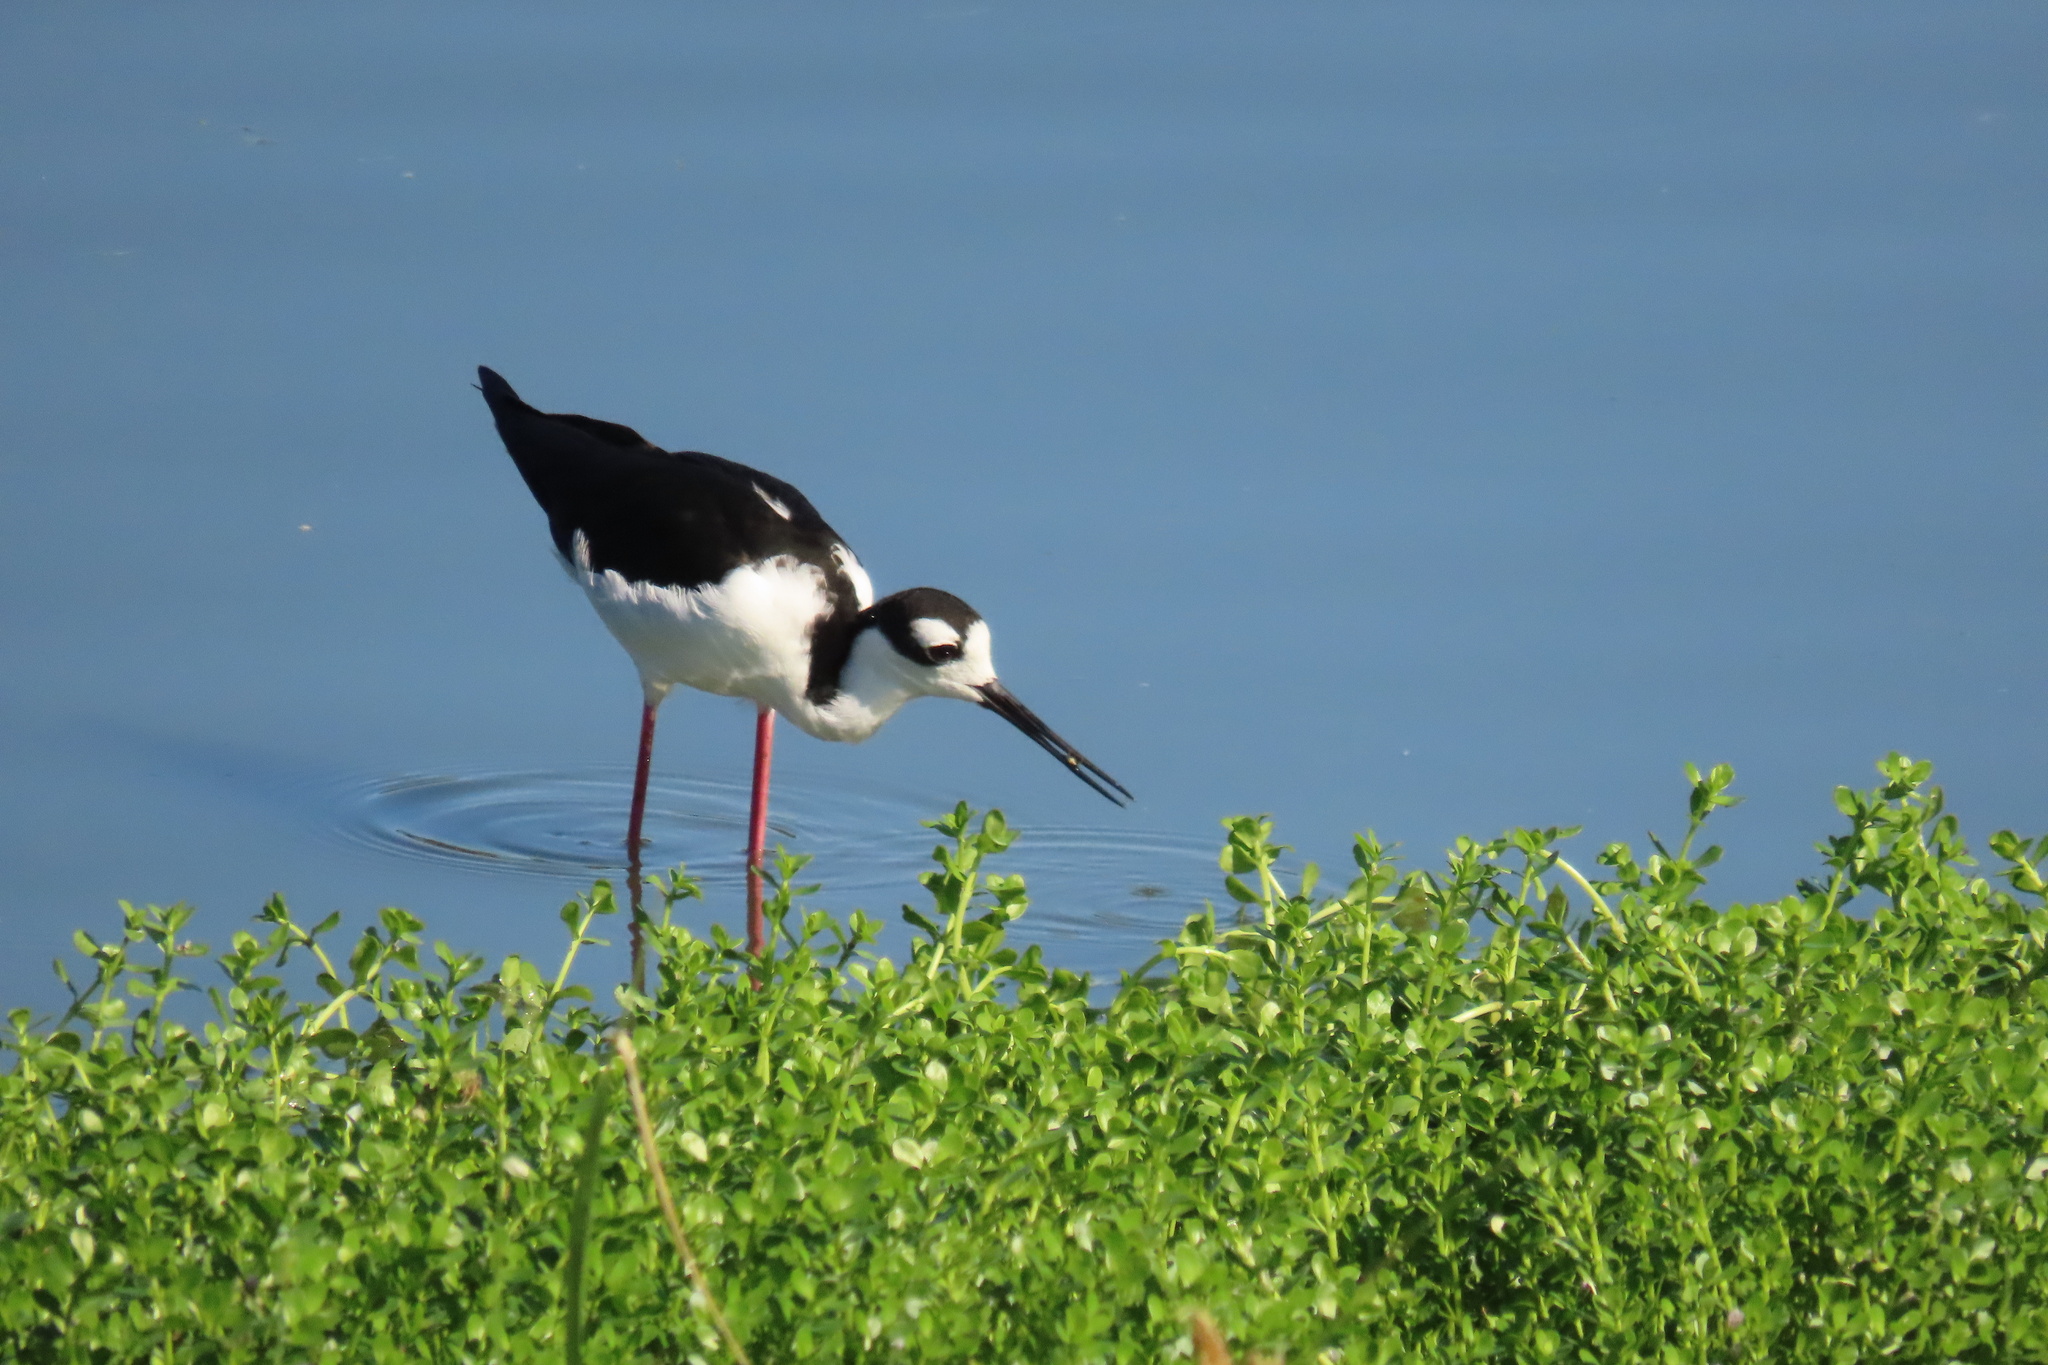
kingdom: Animalia
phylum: Chordata
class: Aves
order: Charadriiformes
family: Recurvirostridae
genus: Himantopus
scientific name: Himantopus mexicanus
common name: Black-necked stilt
